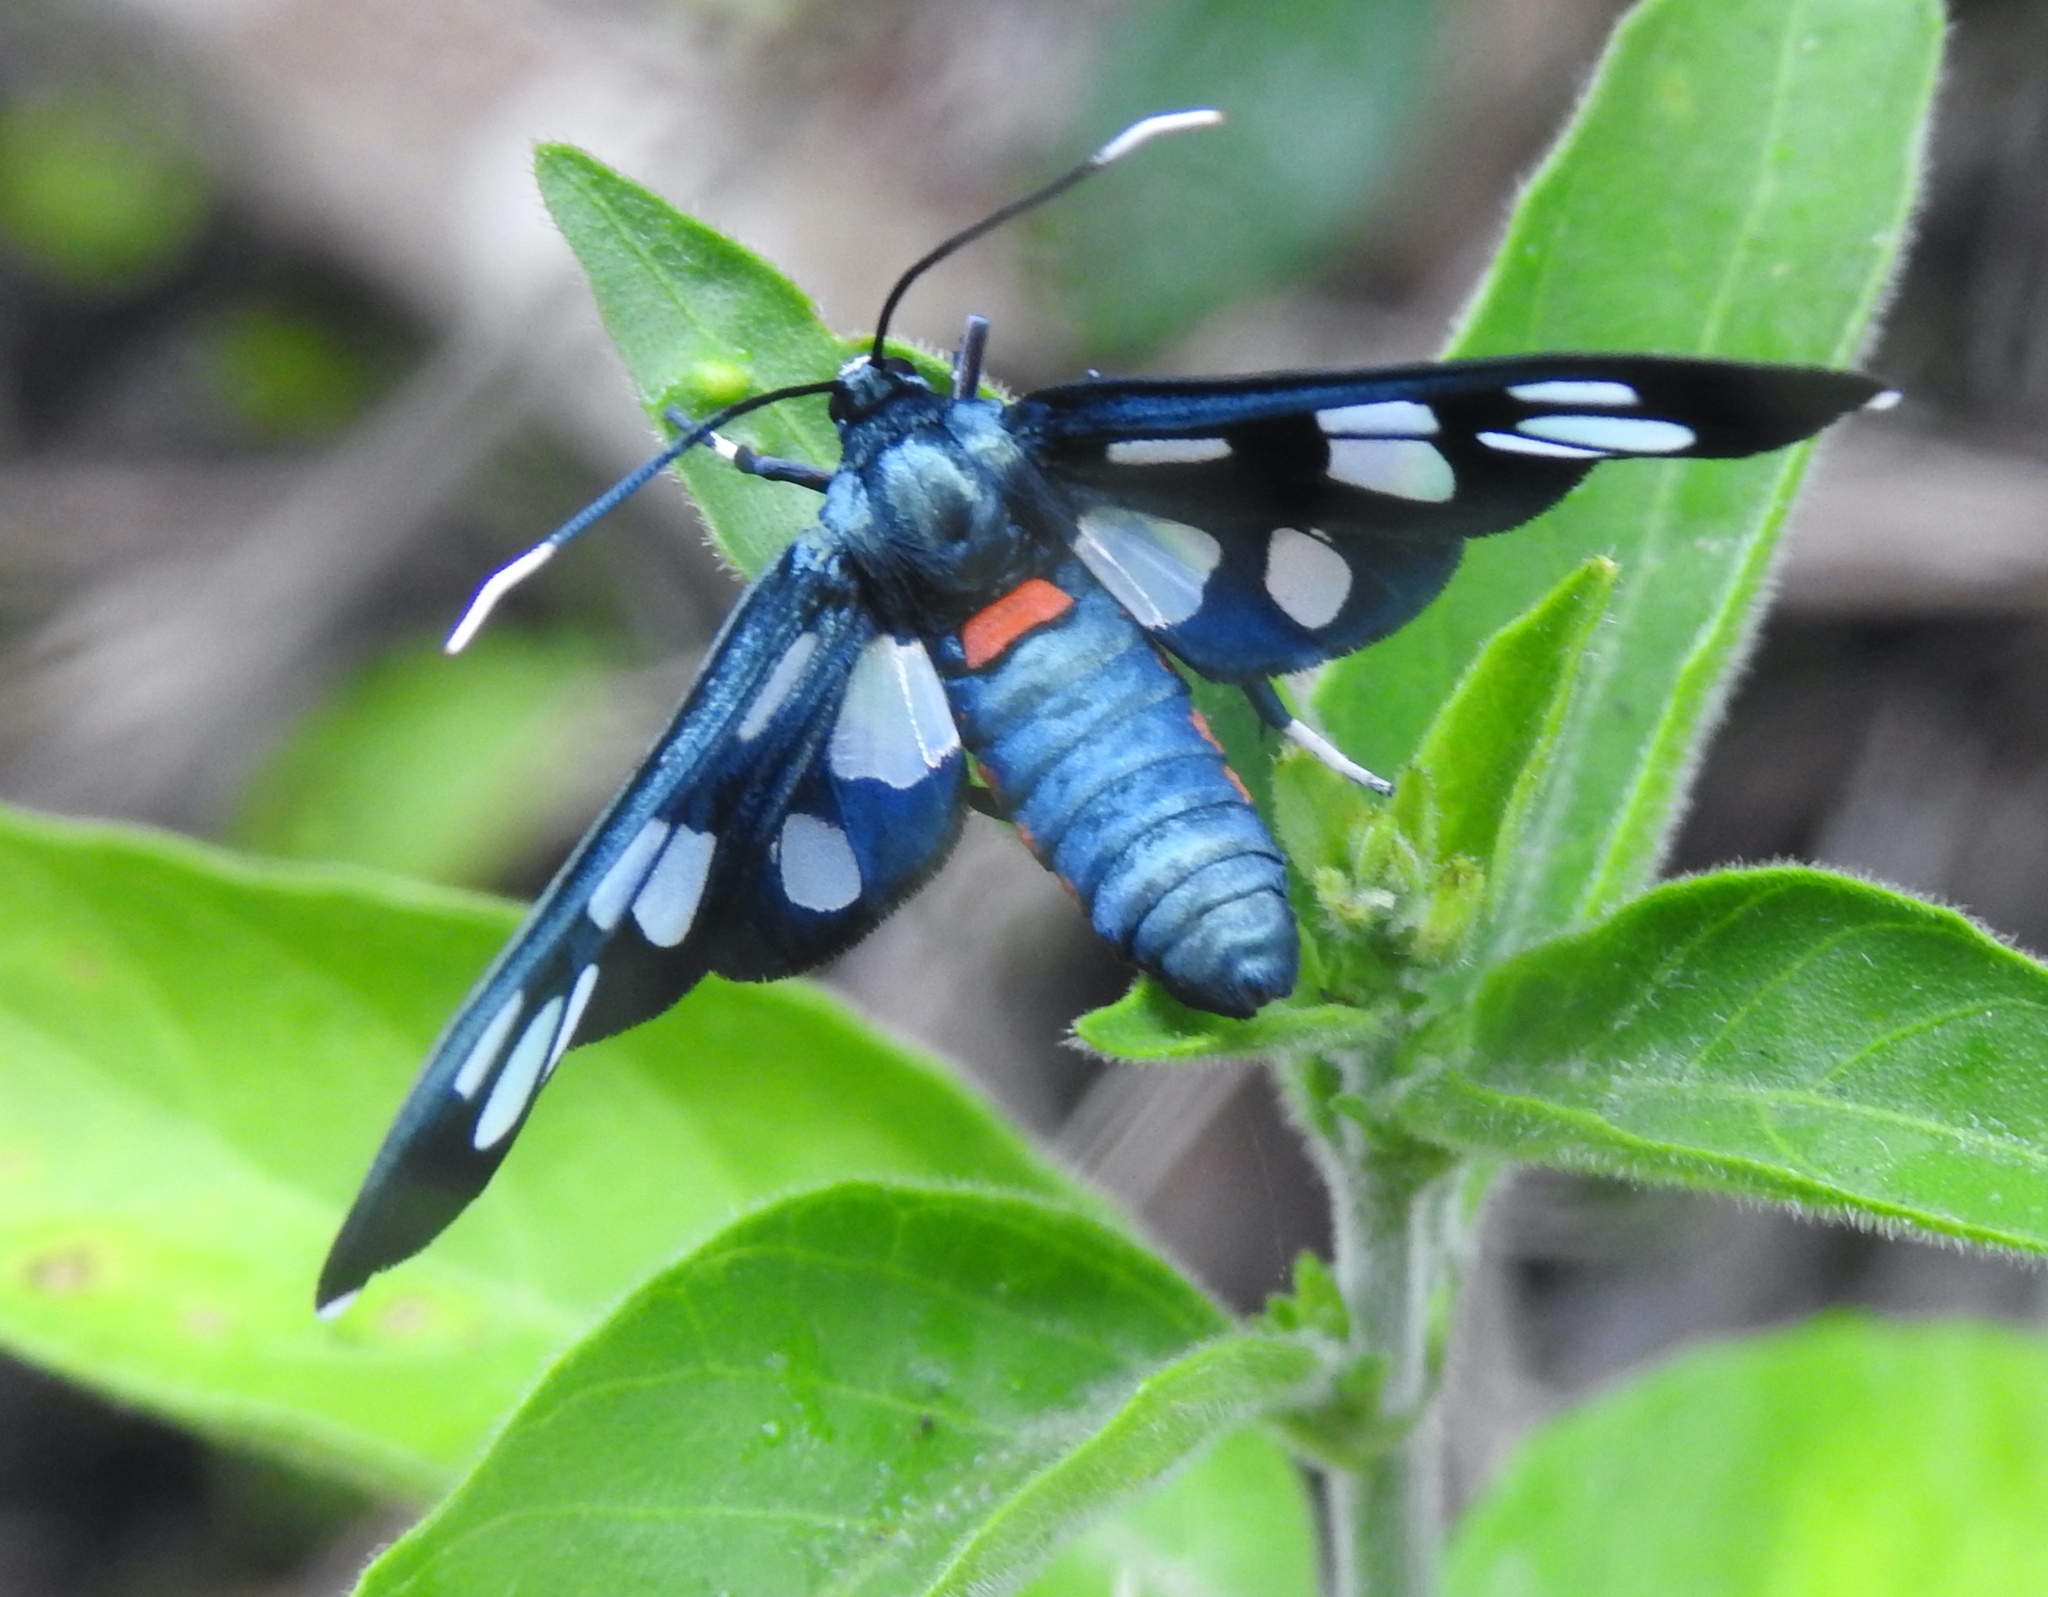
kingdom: Animalia
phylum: Arthropoda
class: Insecta
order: Lepidoptera
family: Erebidae
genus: Amata
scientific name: Amata kuhlweini
